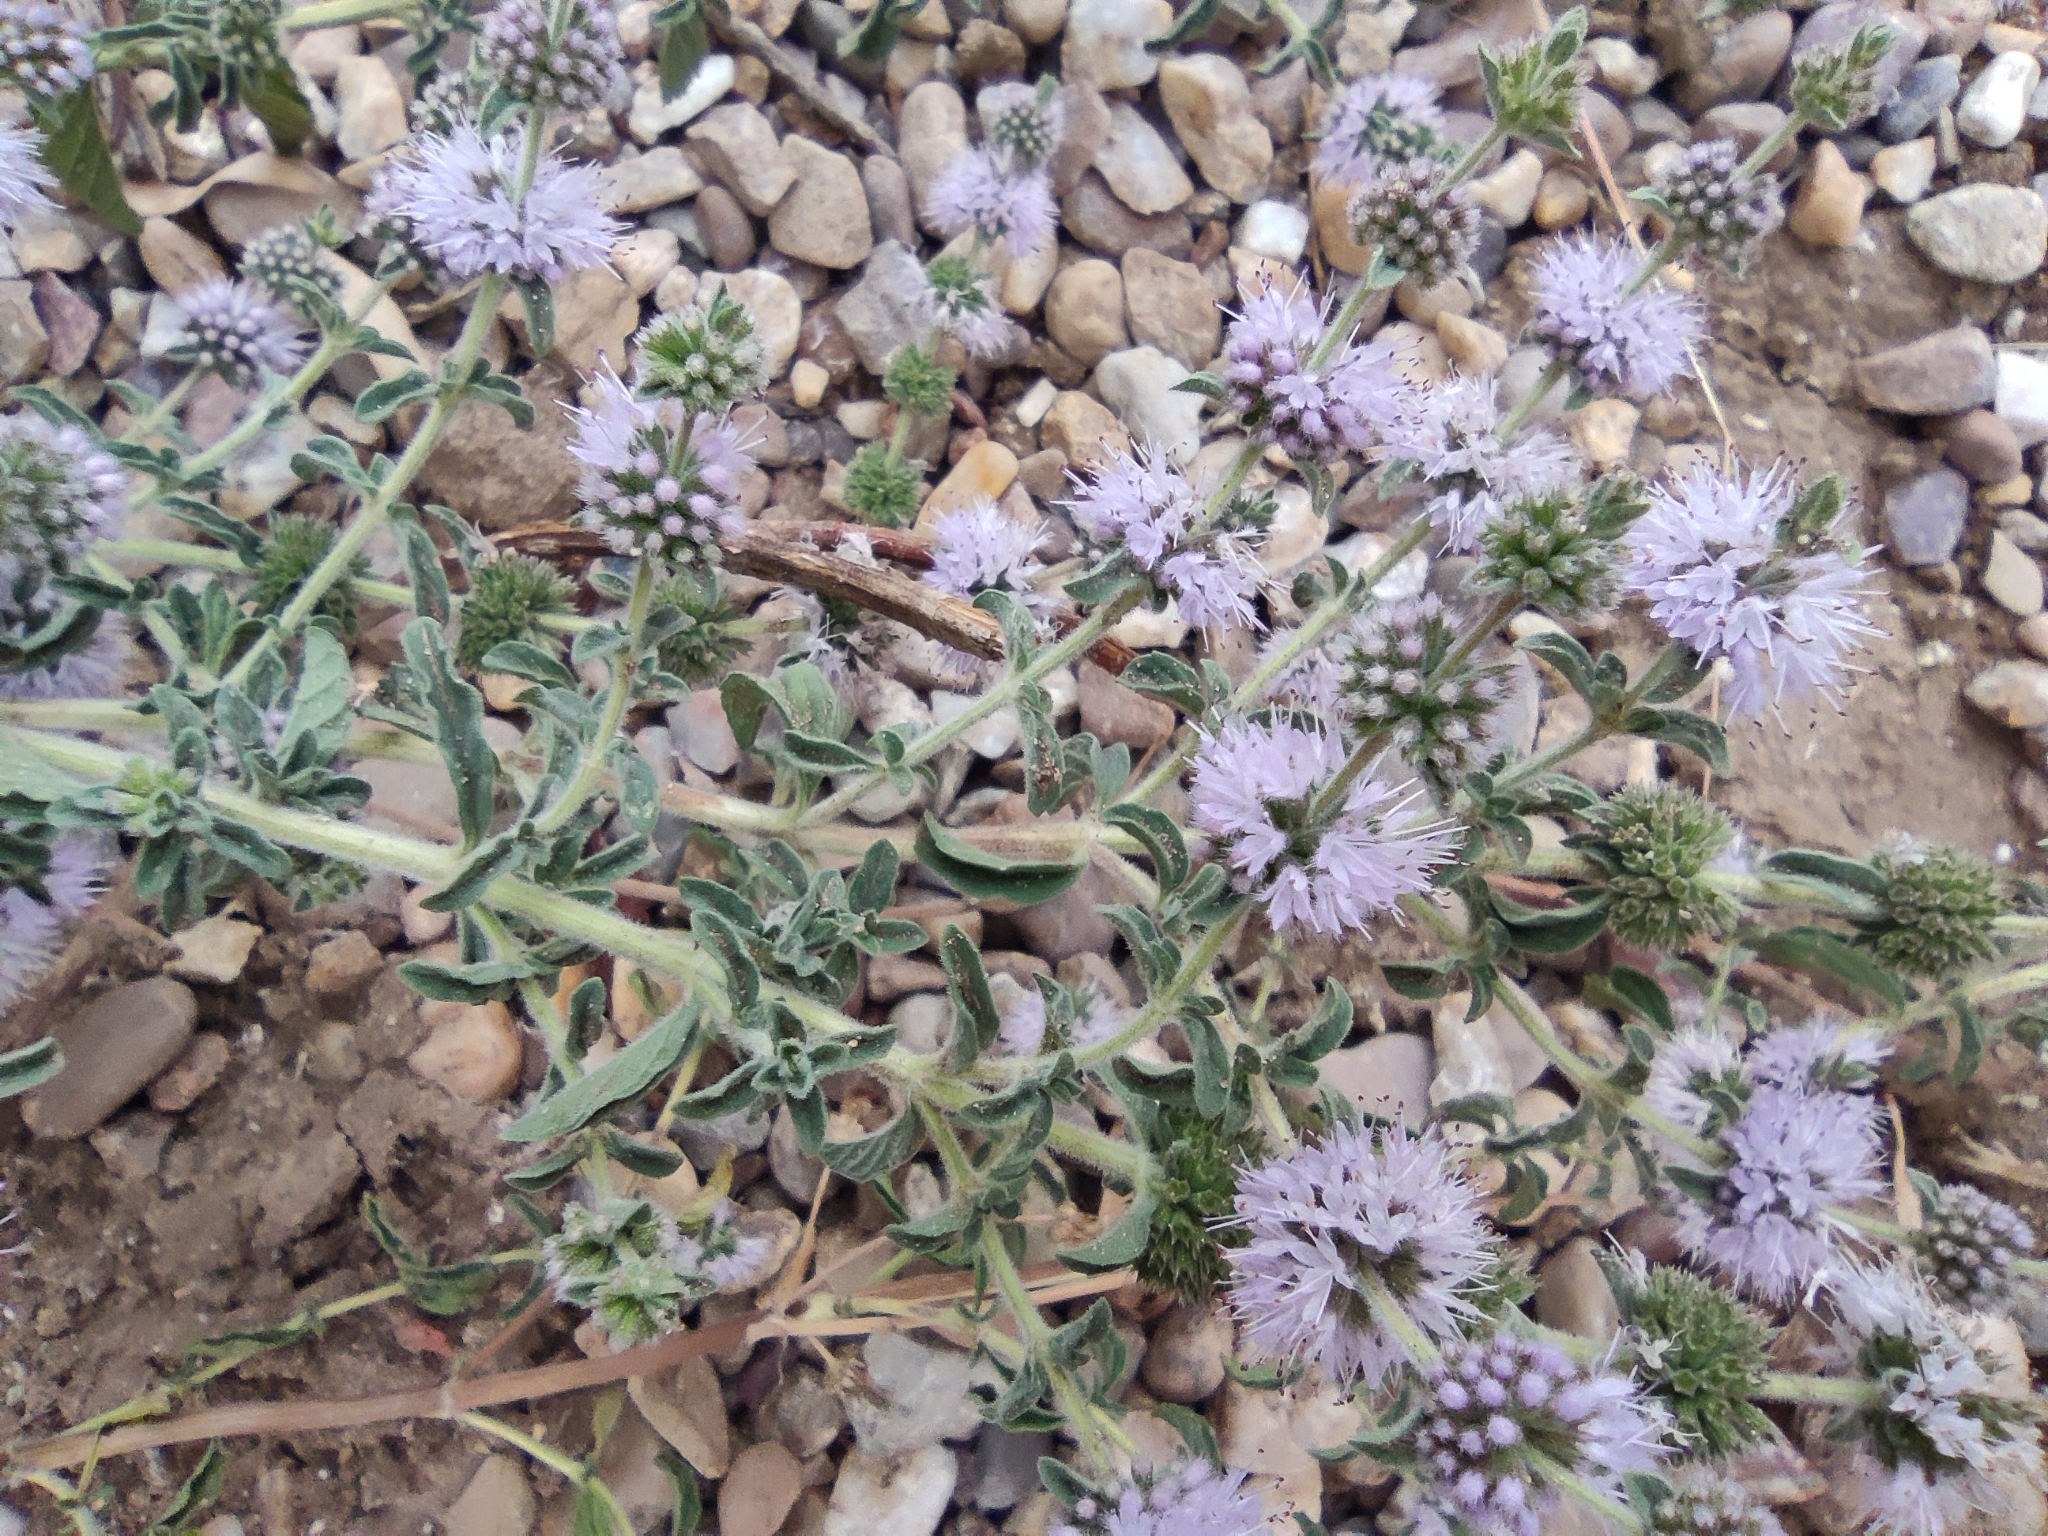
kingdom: Plantae
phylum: Tracheophyta
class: Magnoliopsida
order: Lamiales
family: Lamiaceae
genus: Mentha
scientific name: Mentha pulegium
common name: Pennyroyal
